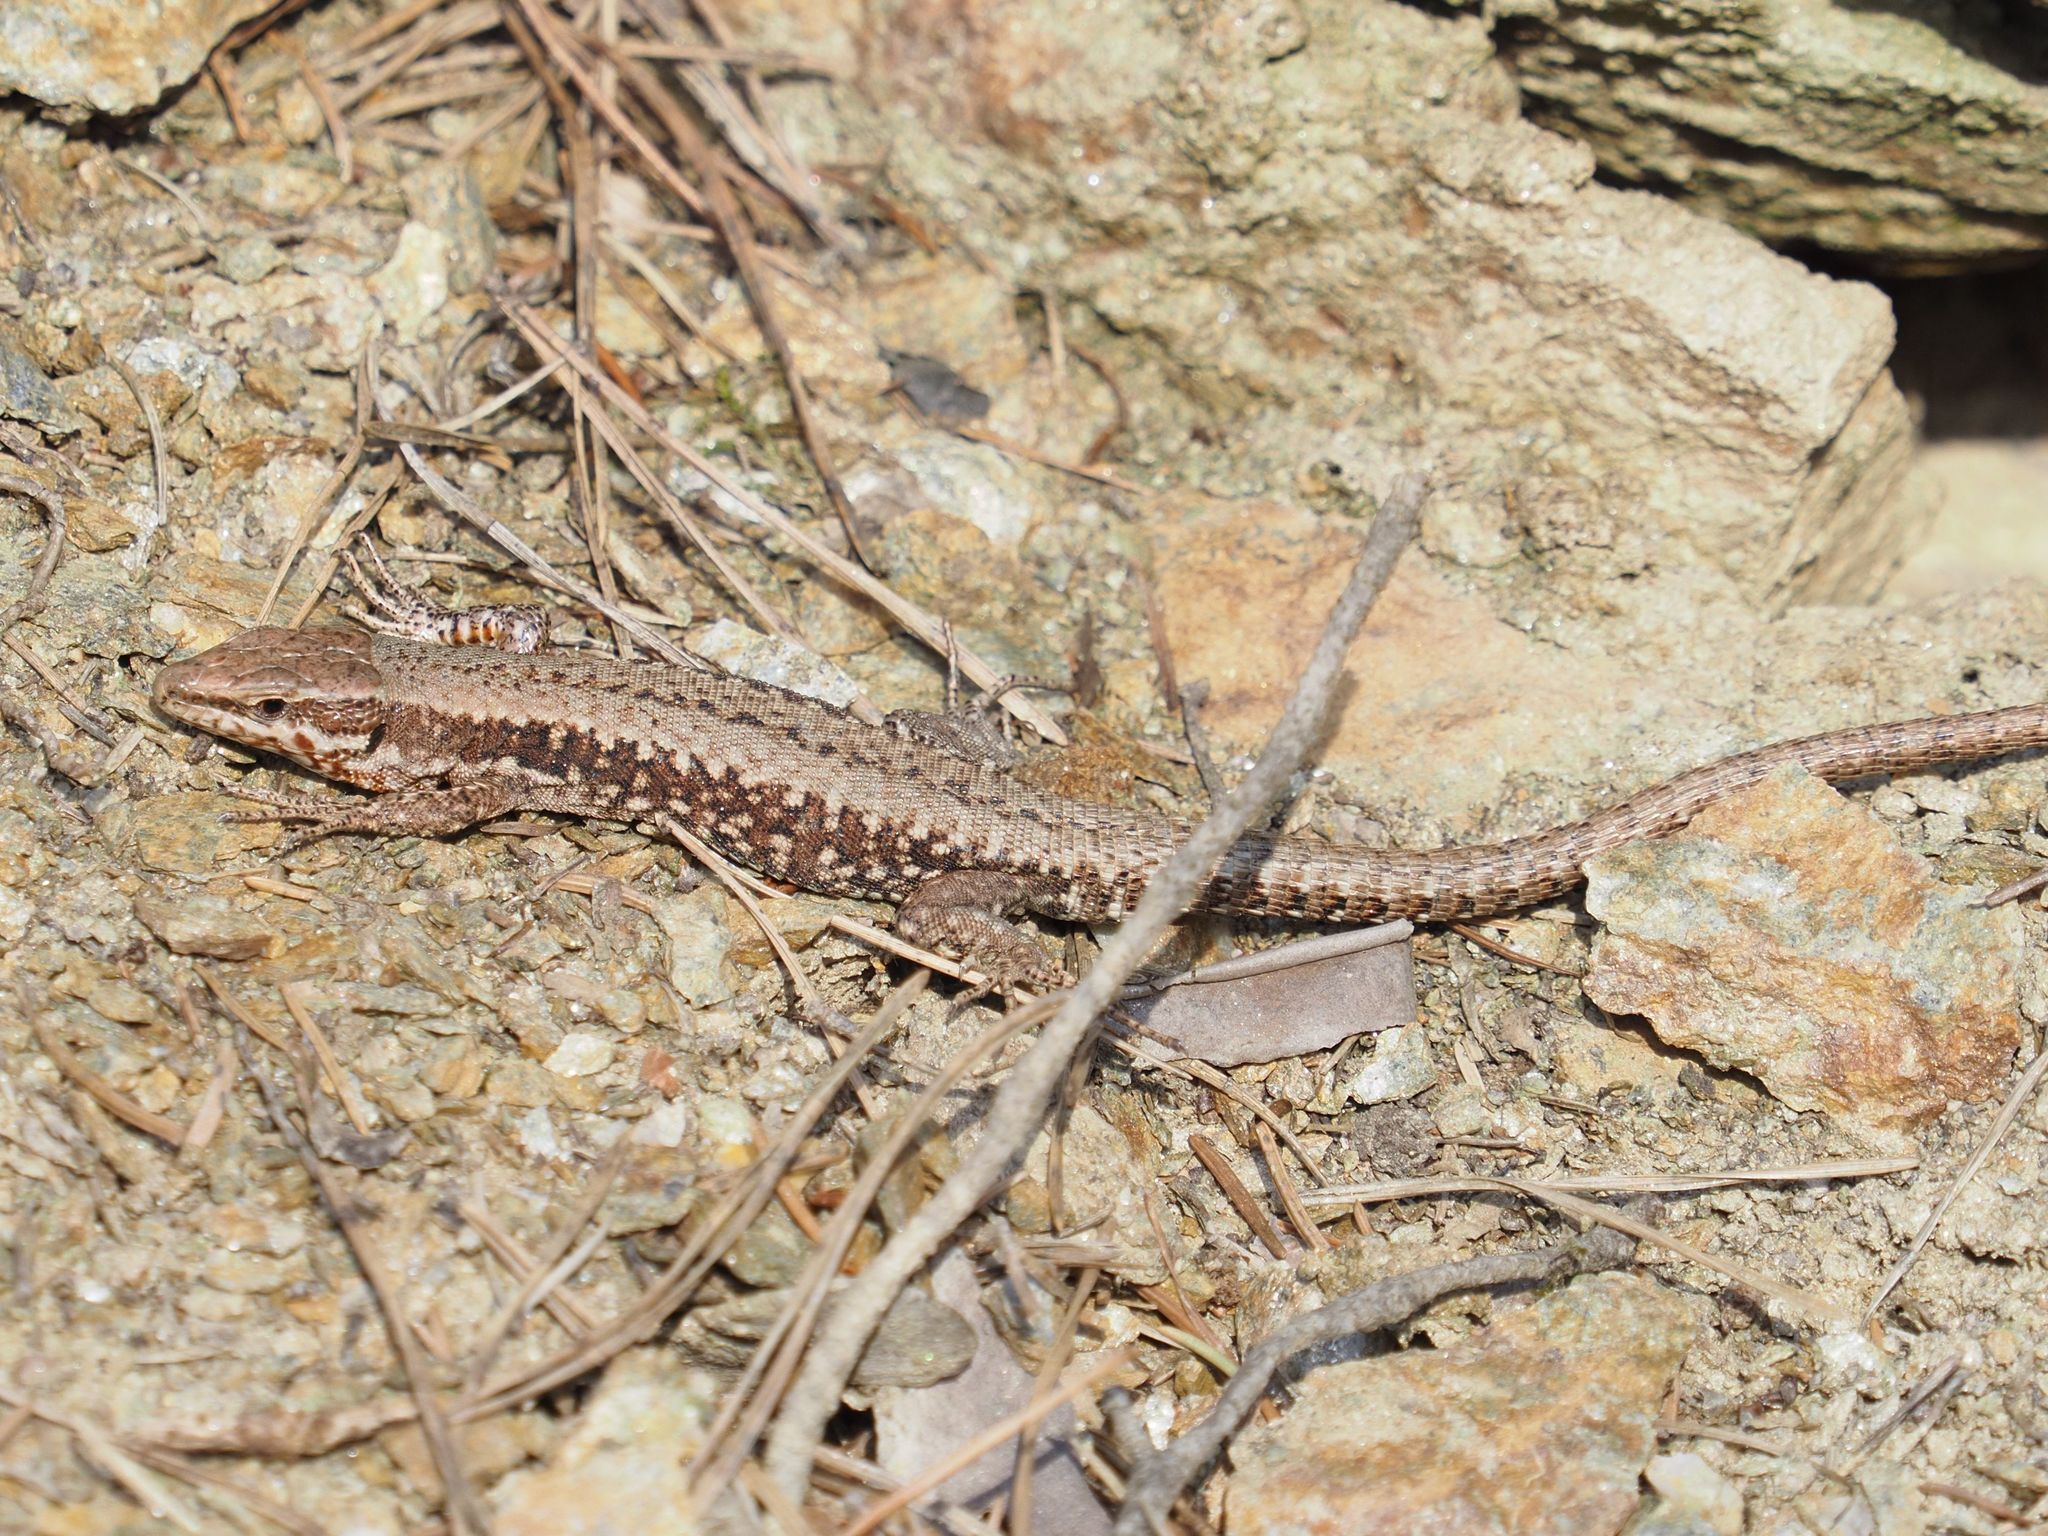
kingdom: Animalia
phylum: Chordata
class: Squamata
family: Lacertidae
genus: Podarcis
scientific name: Podarcis muralis
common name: Common wall lizard
